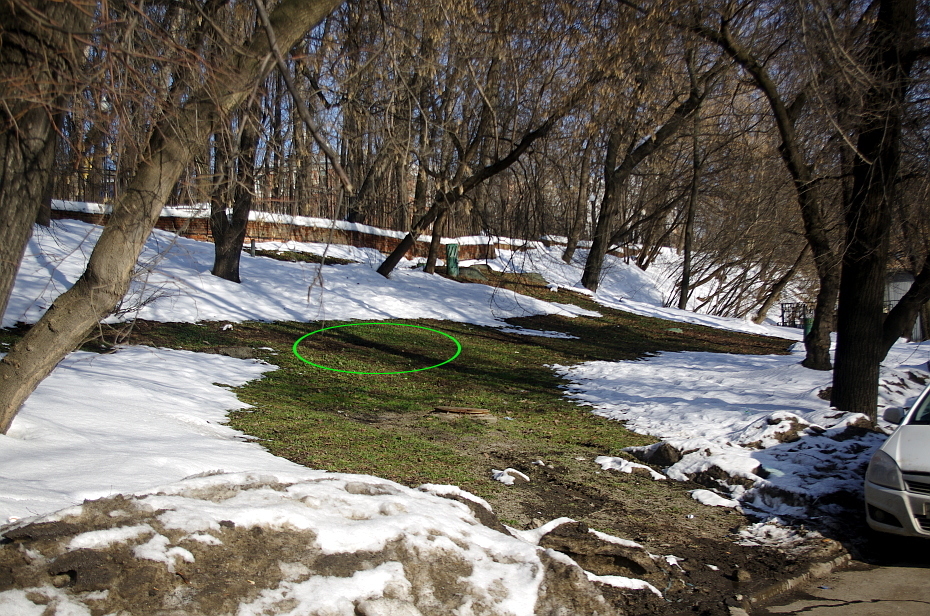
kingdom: Plantae
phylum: Tracheophyta
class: Magnoliopsida
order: Boraginales
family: Boraginaceae
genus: Myosotis
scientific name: Myosotis sparsiflora
